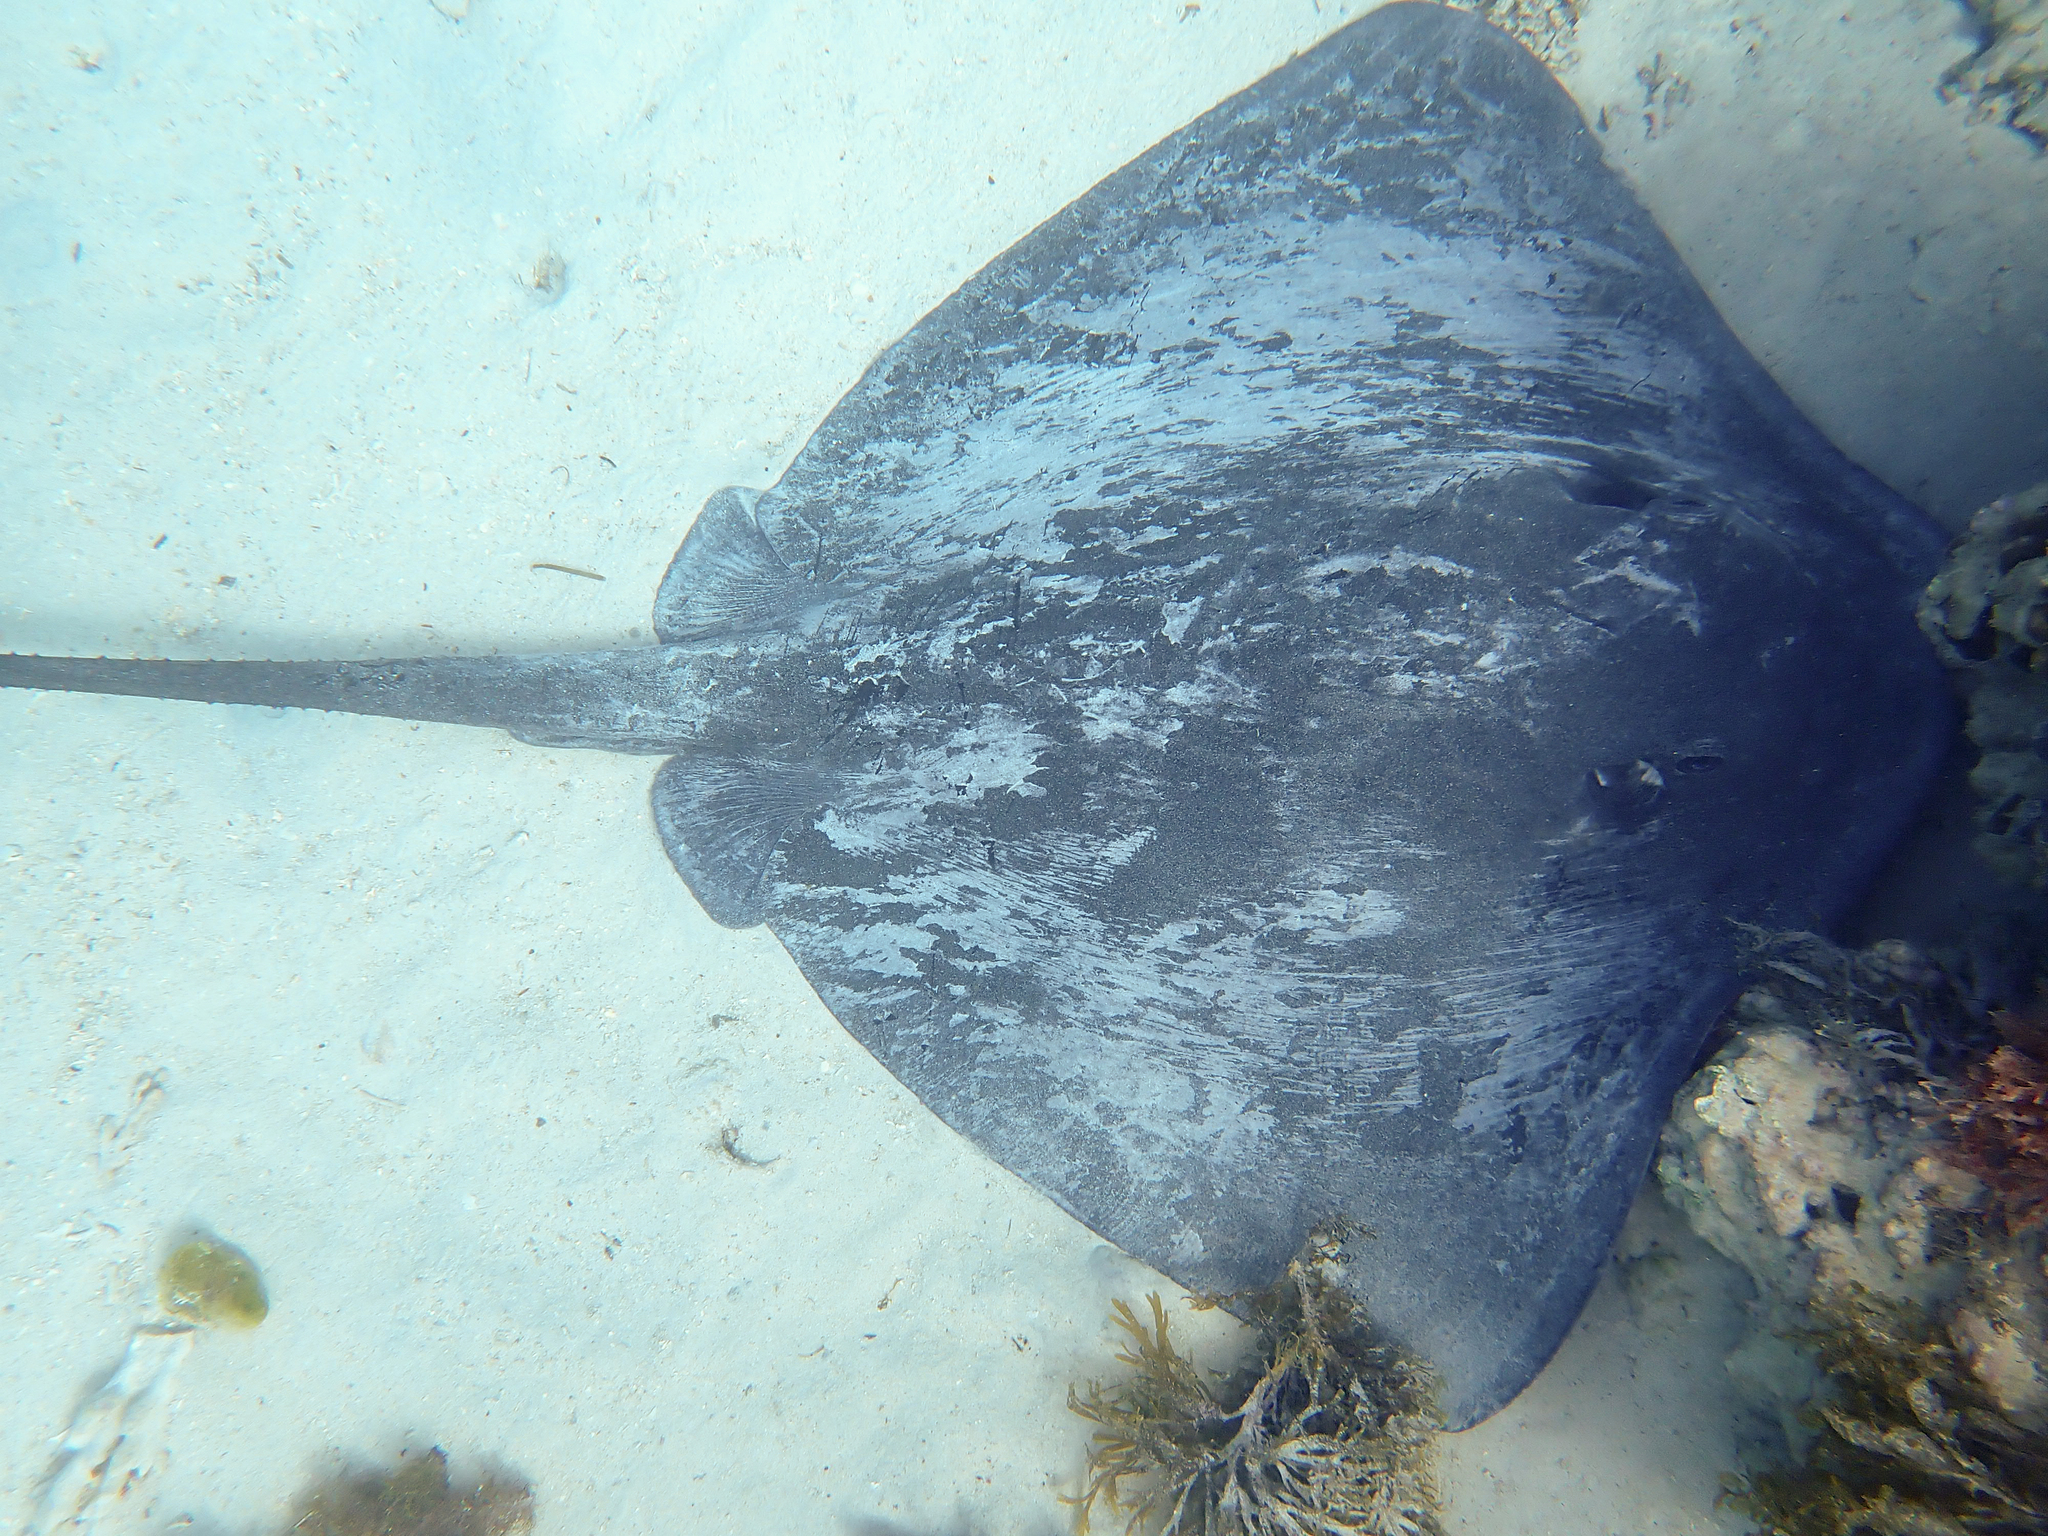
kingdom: Animalia
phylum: Chordata
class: Elasmobranchii
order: Myliobatiformes
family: Dasyatidae
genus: Bathytoshia
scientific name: Bathytoshia lata
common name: Brown stingray
